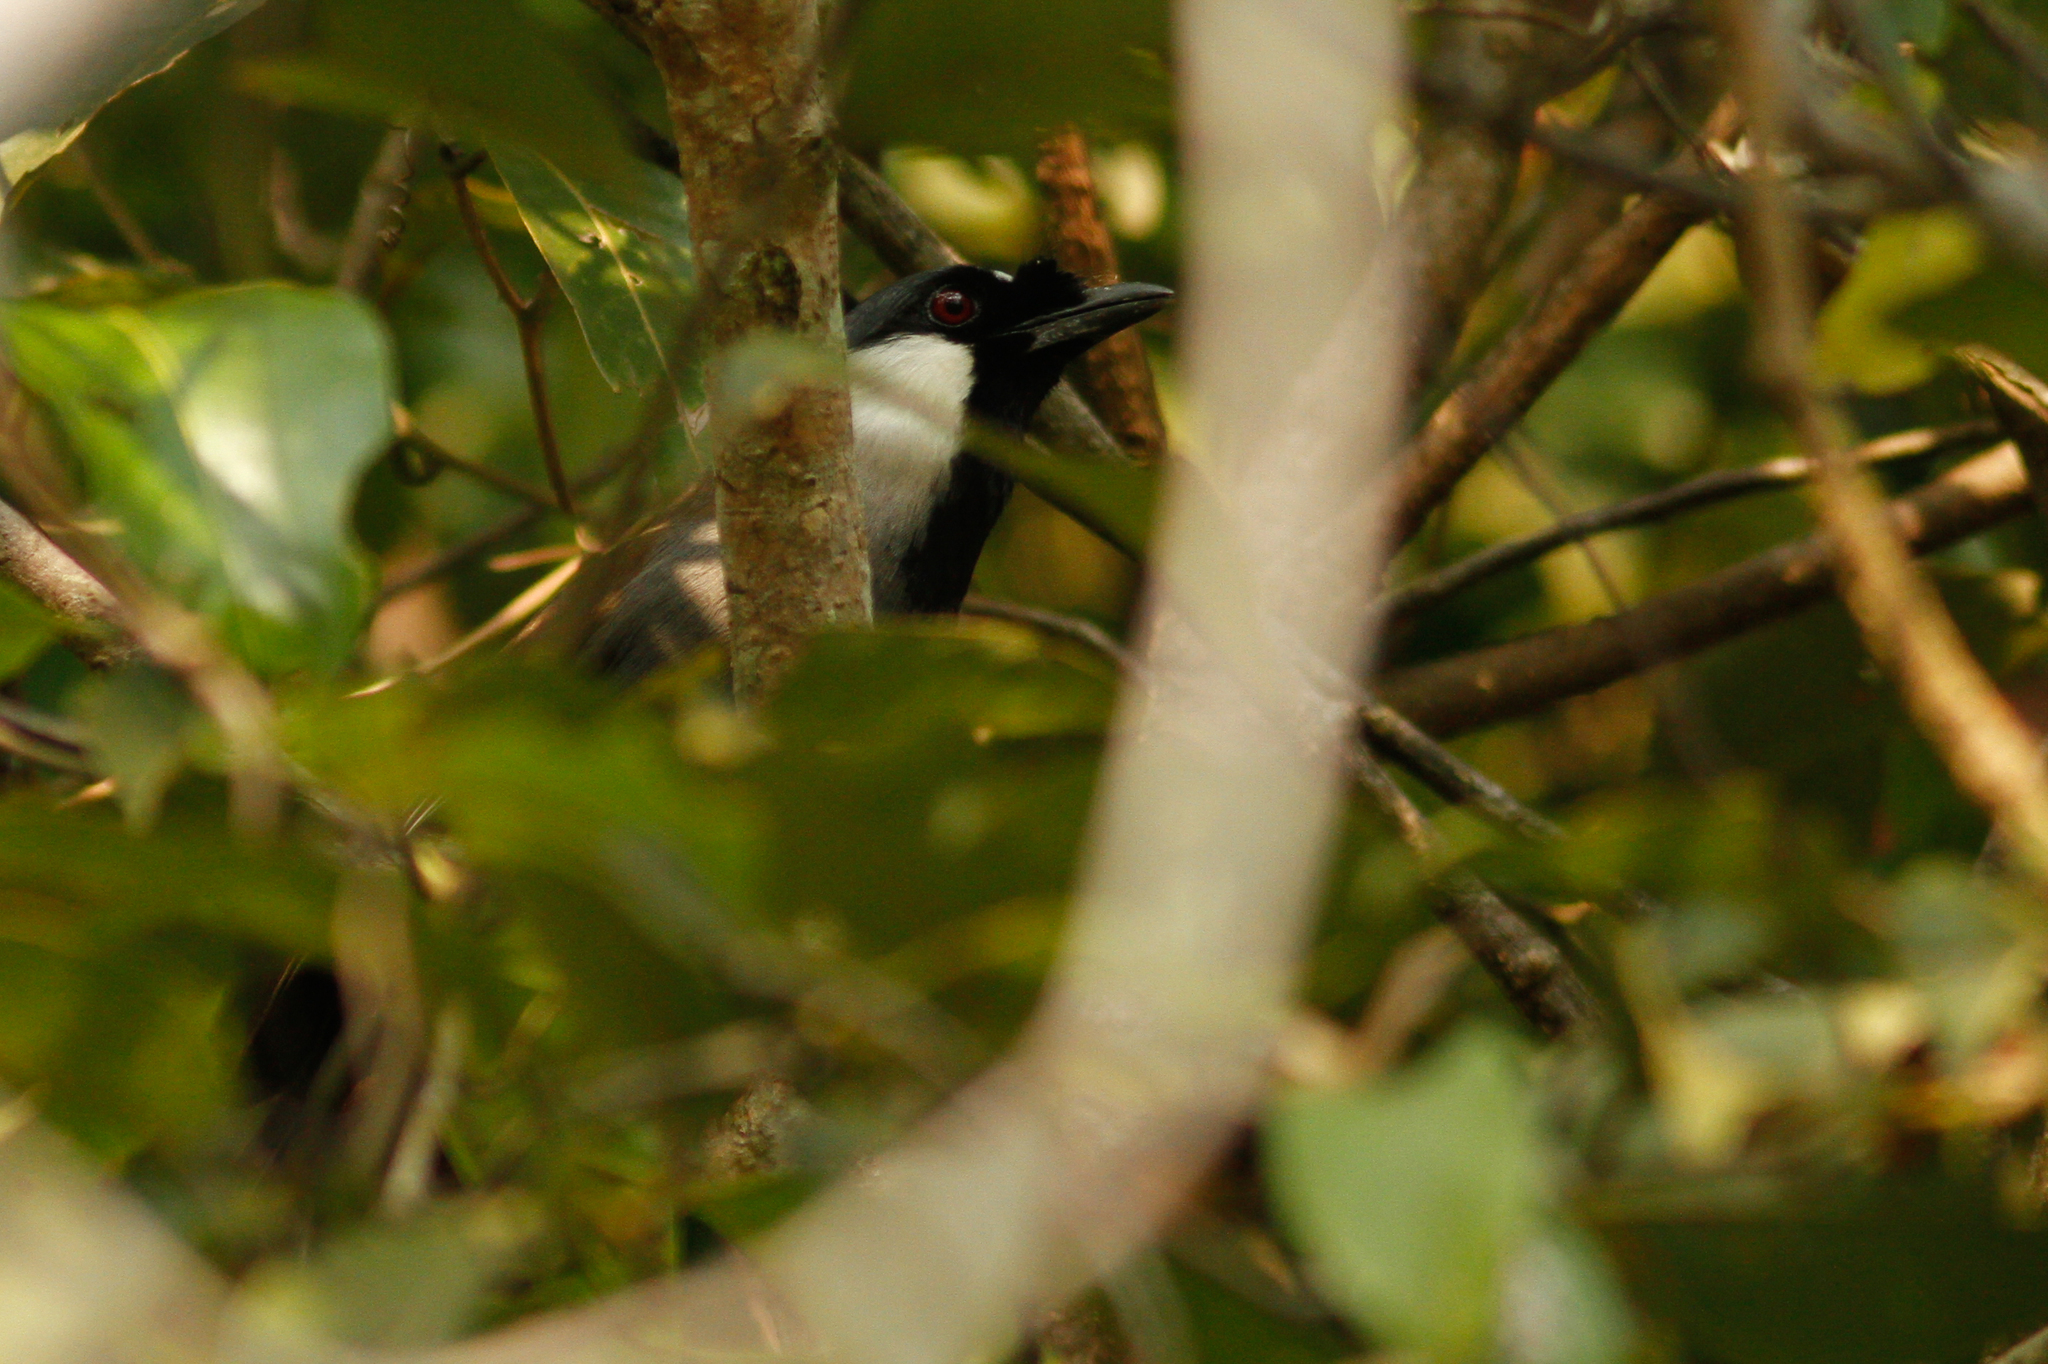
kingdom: Animalia
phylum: Chordata
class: Aves
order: Passeriformes
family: Leiothrichidae
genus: Garrulax
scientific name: Garrulax chinensis
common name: Black-throated laughingthrush
